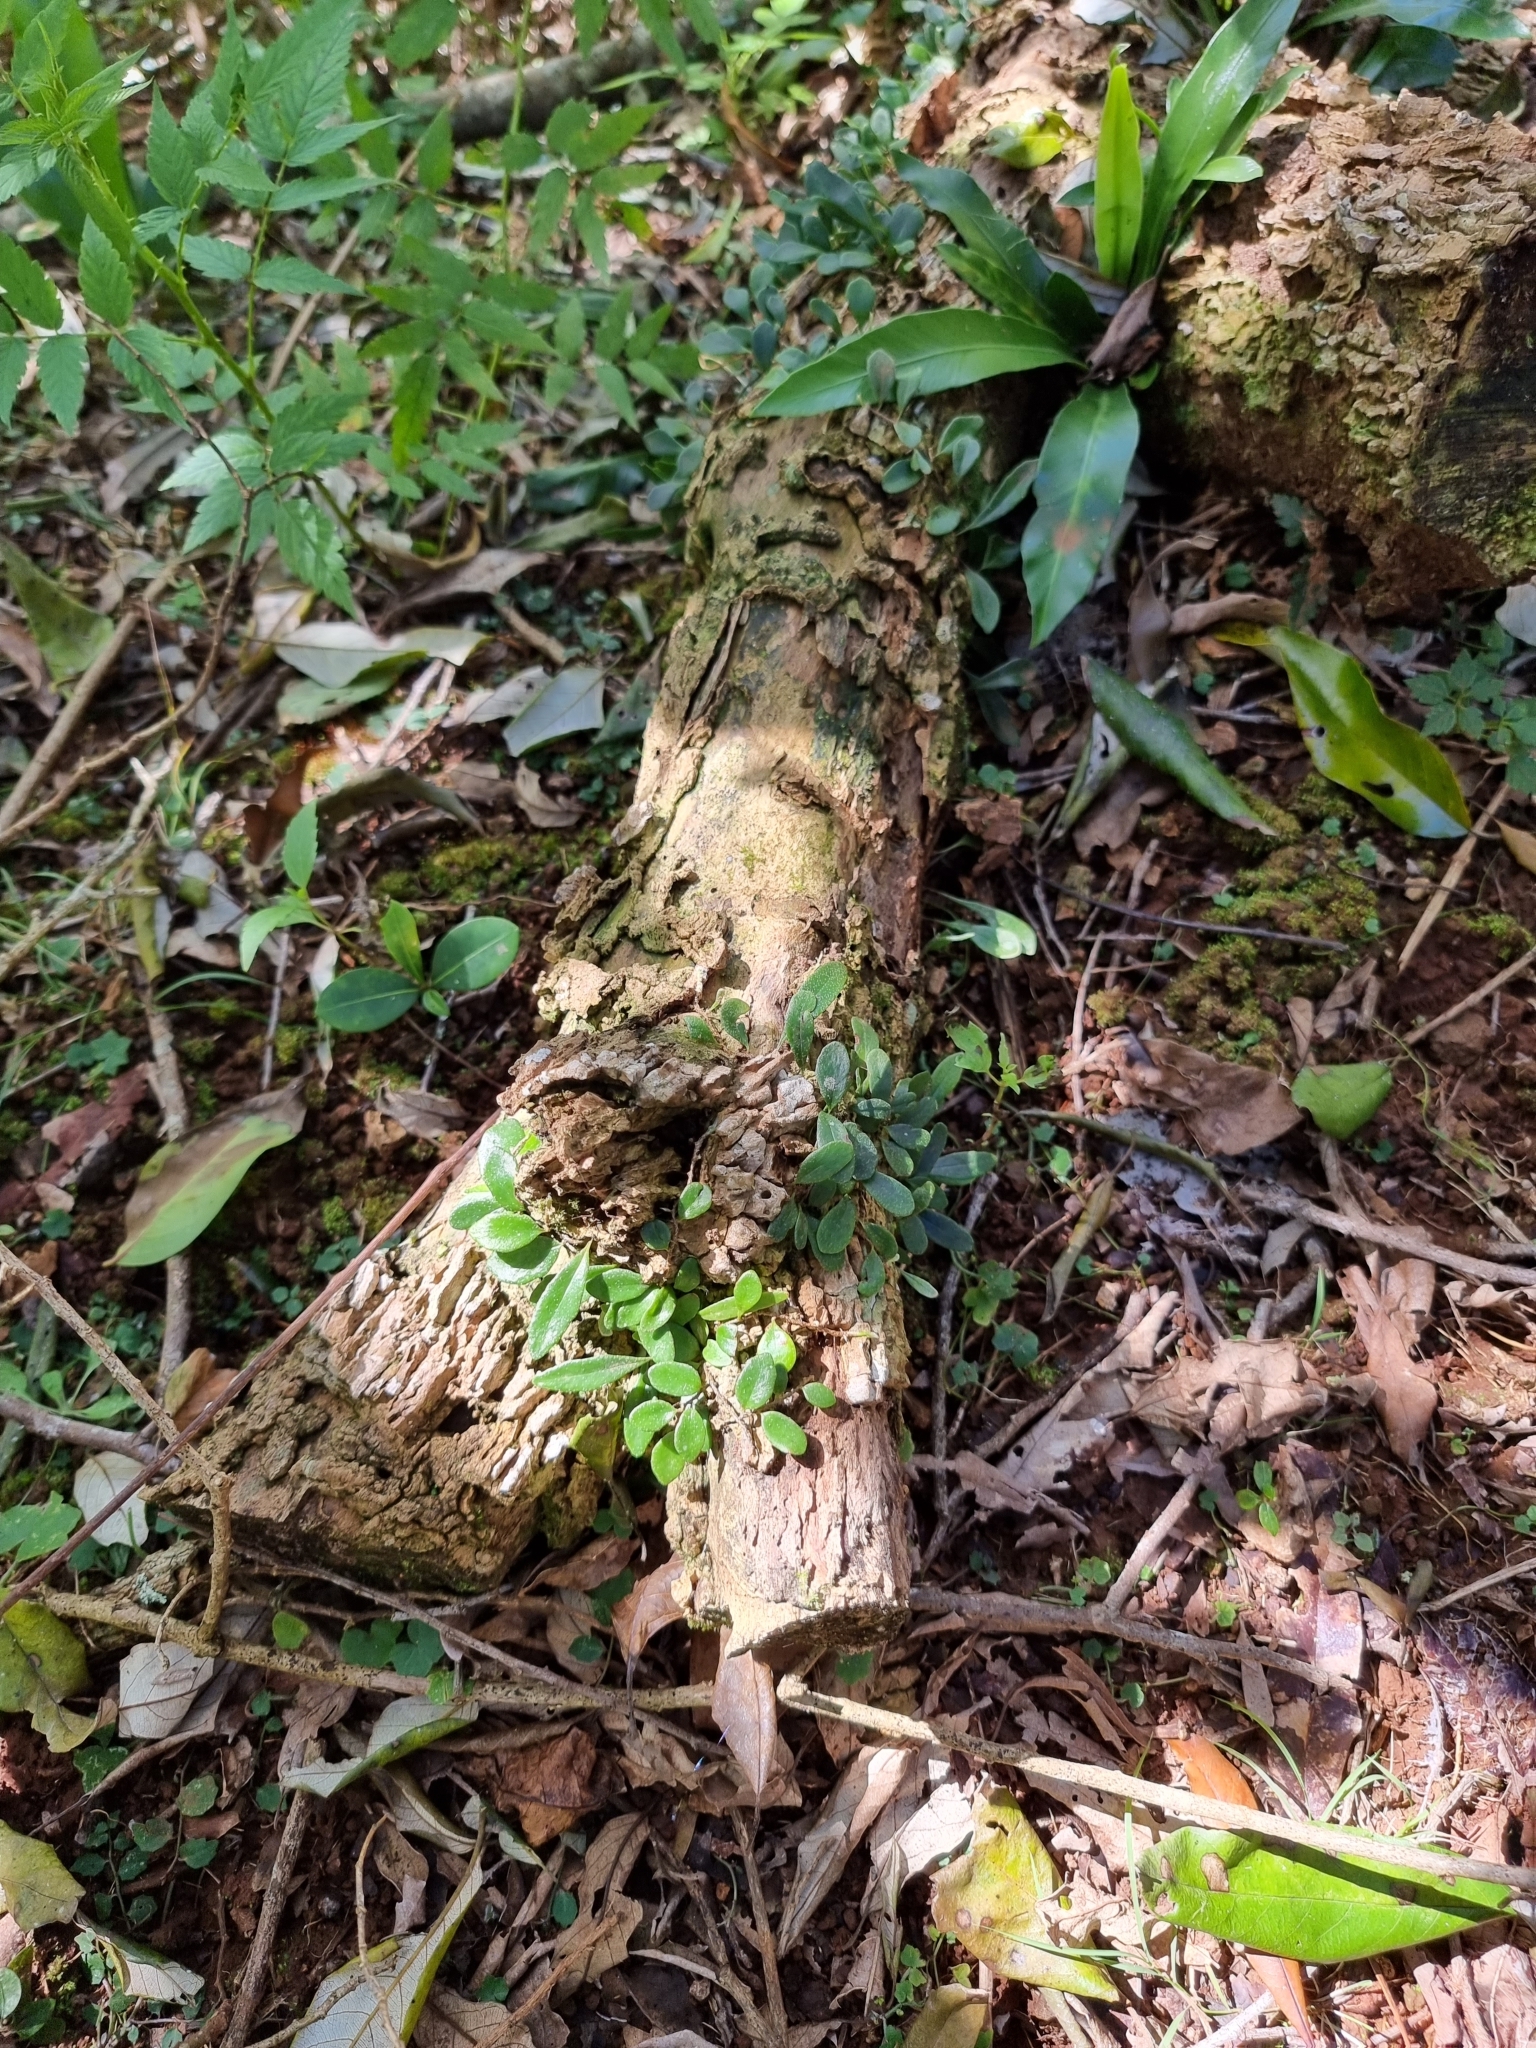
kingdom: Plantae
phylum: Tracheophyta
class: Polypodiopsida
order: Polypodiales
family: Polypodiaceae
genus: Pyrrosia
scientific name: Pyrrosia rupestris
